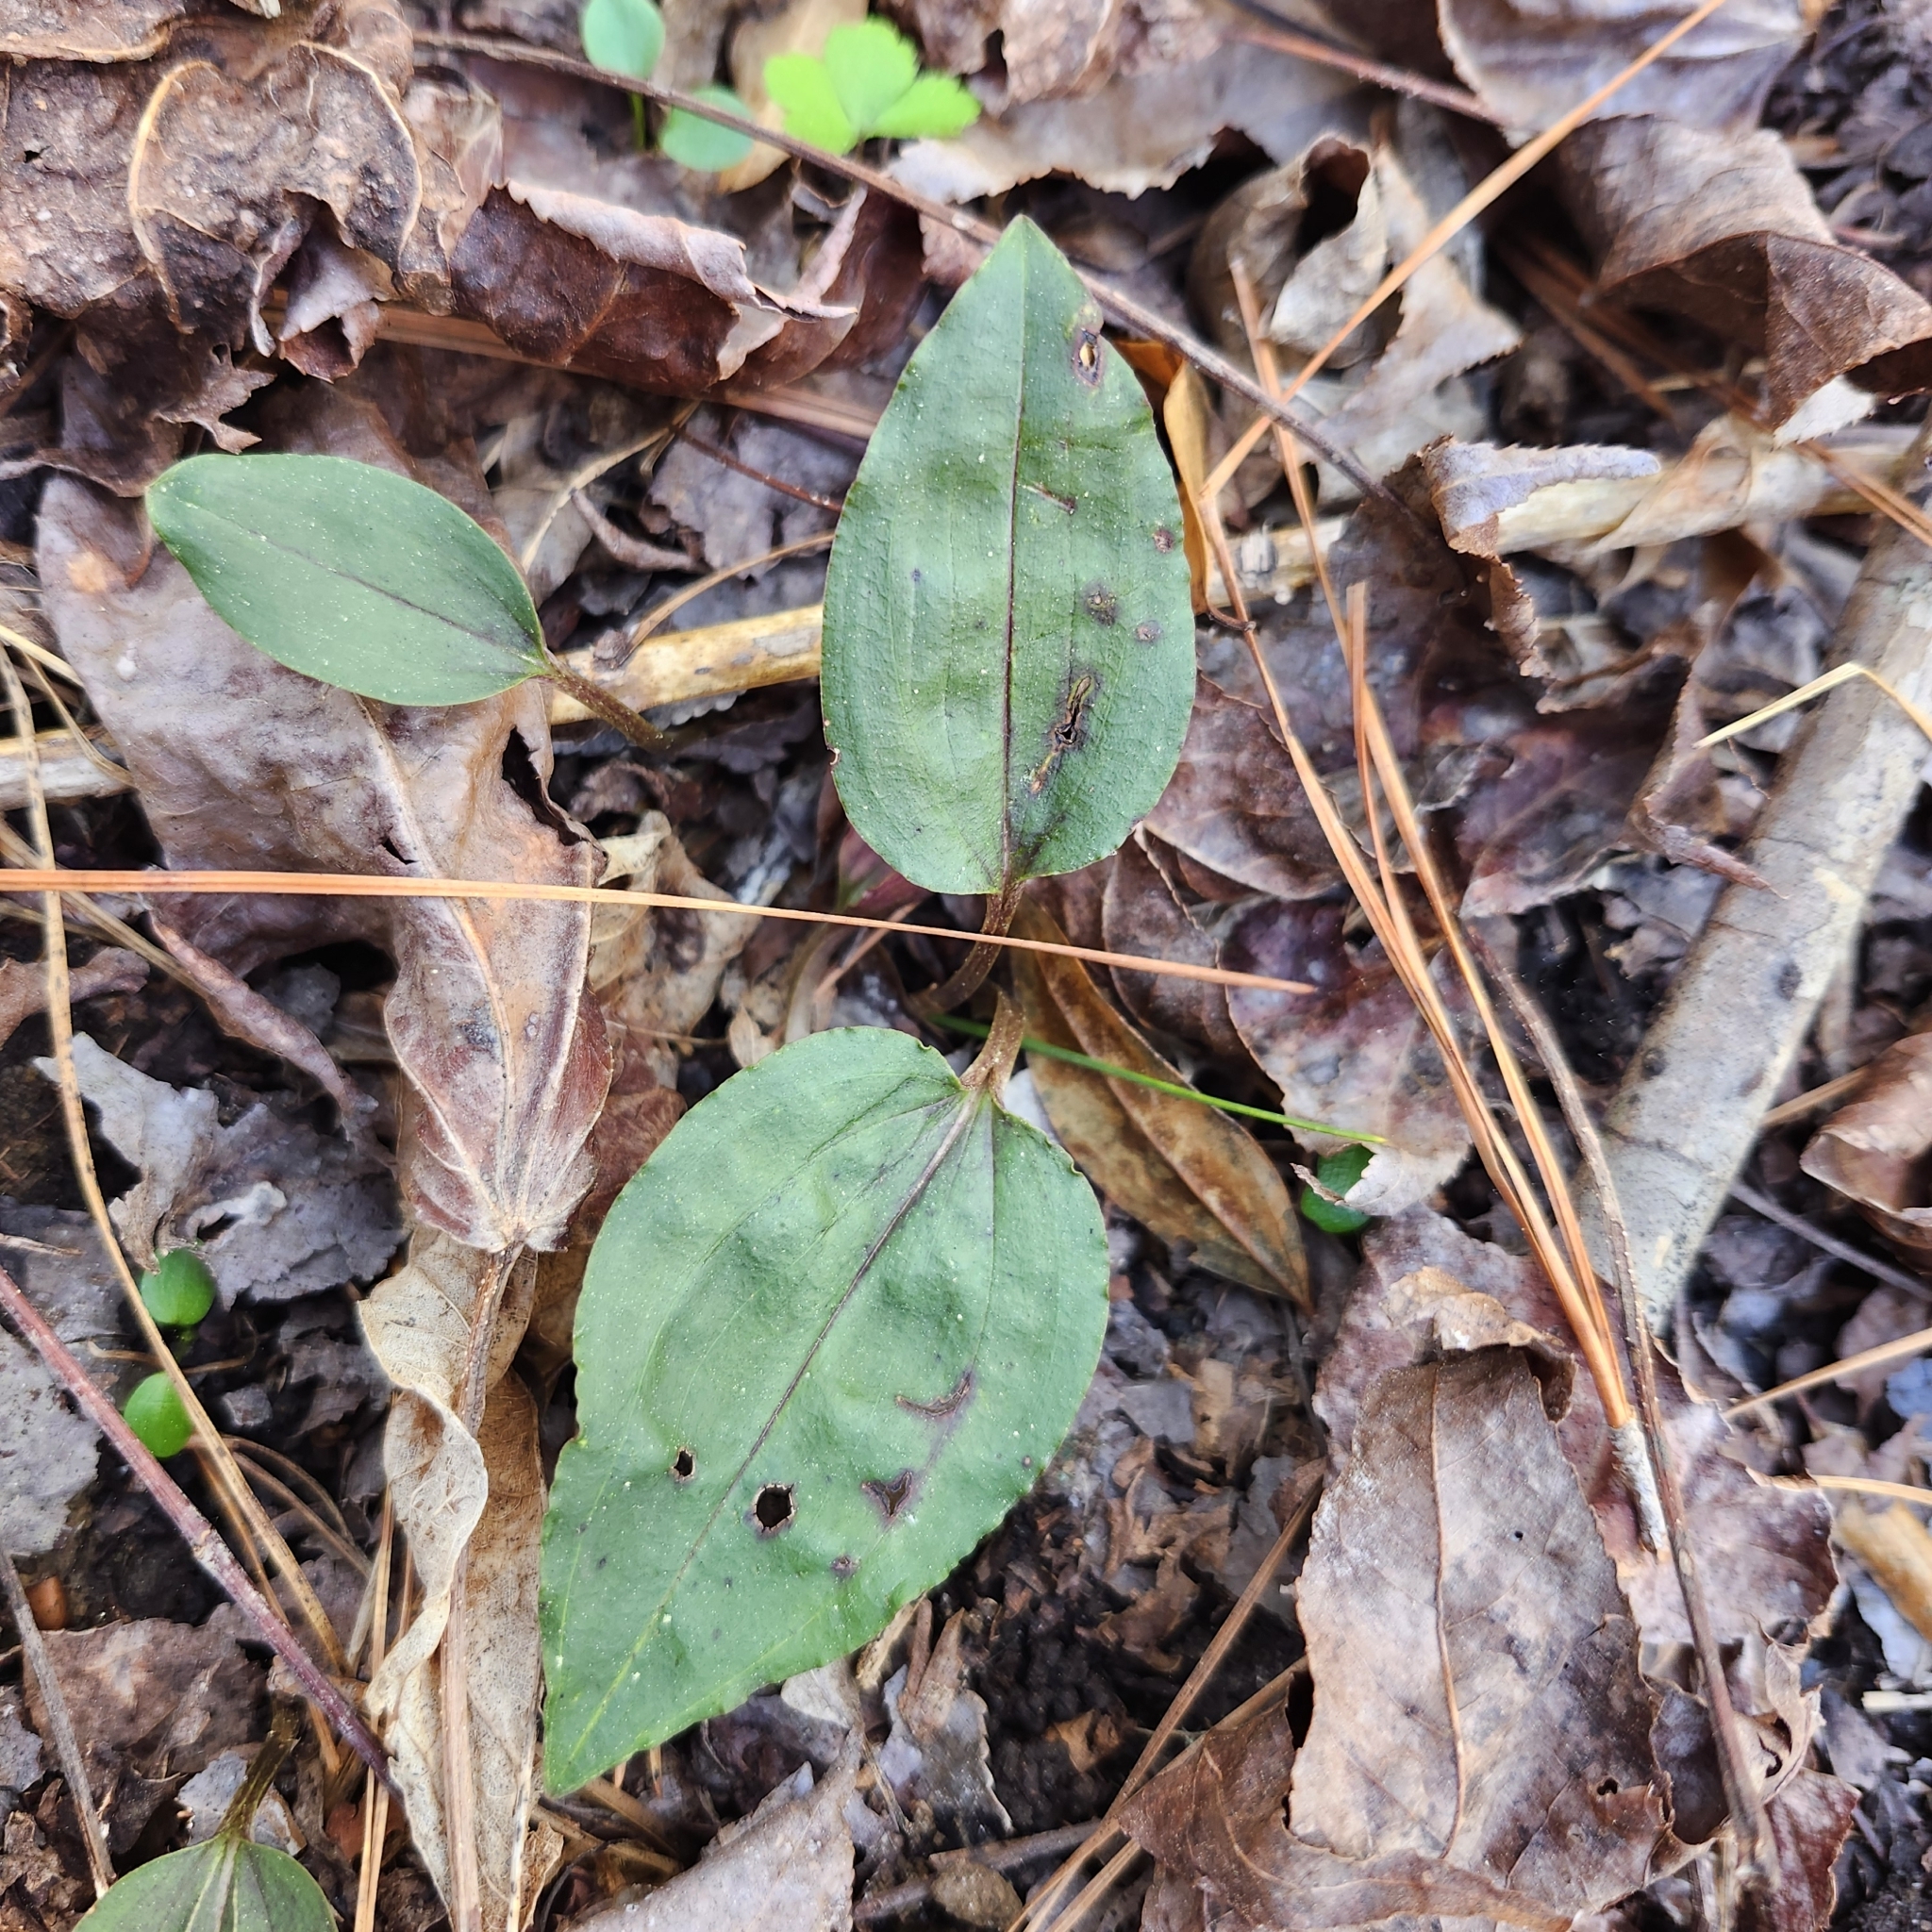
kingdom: Plantae
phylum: Tracheophyta
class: Liliopsida
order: Asparagales
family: Orchidaceae
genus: Tipularia
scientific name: Tipularia discolor
